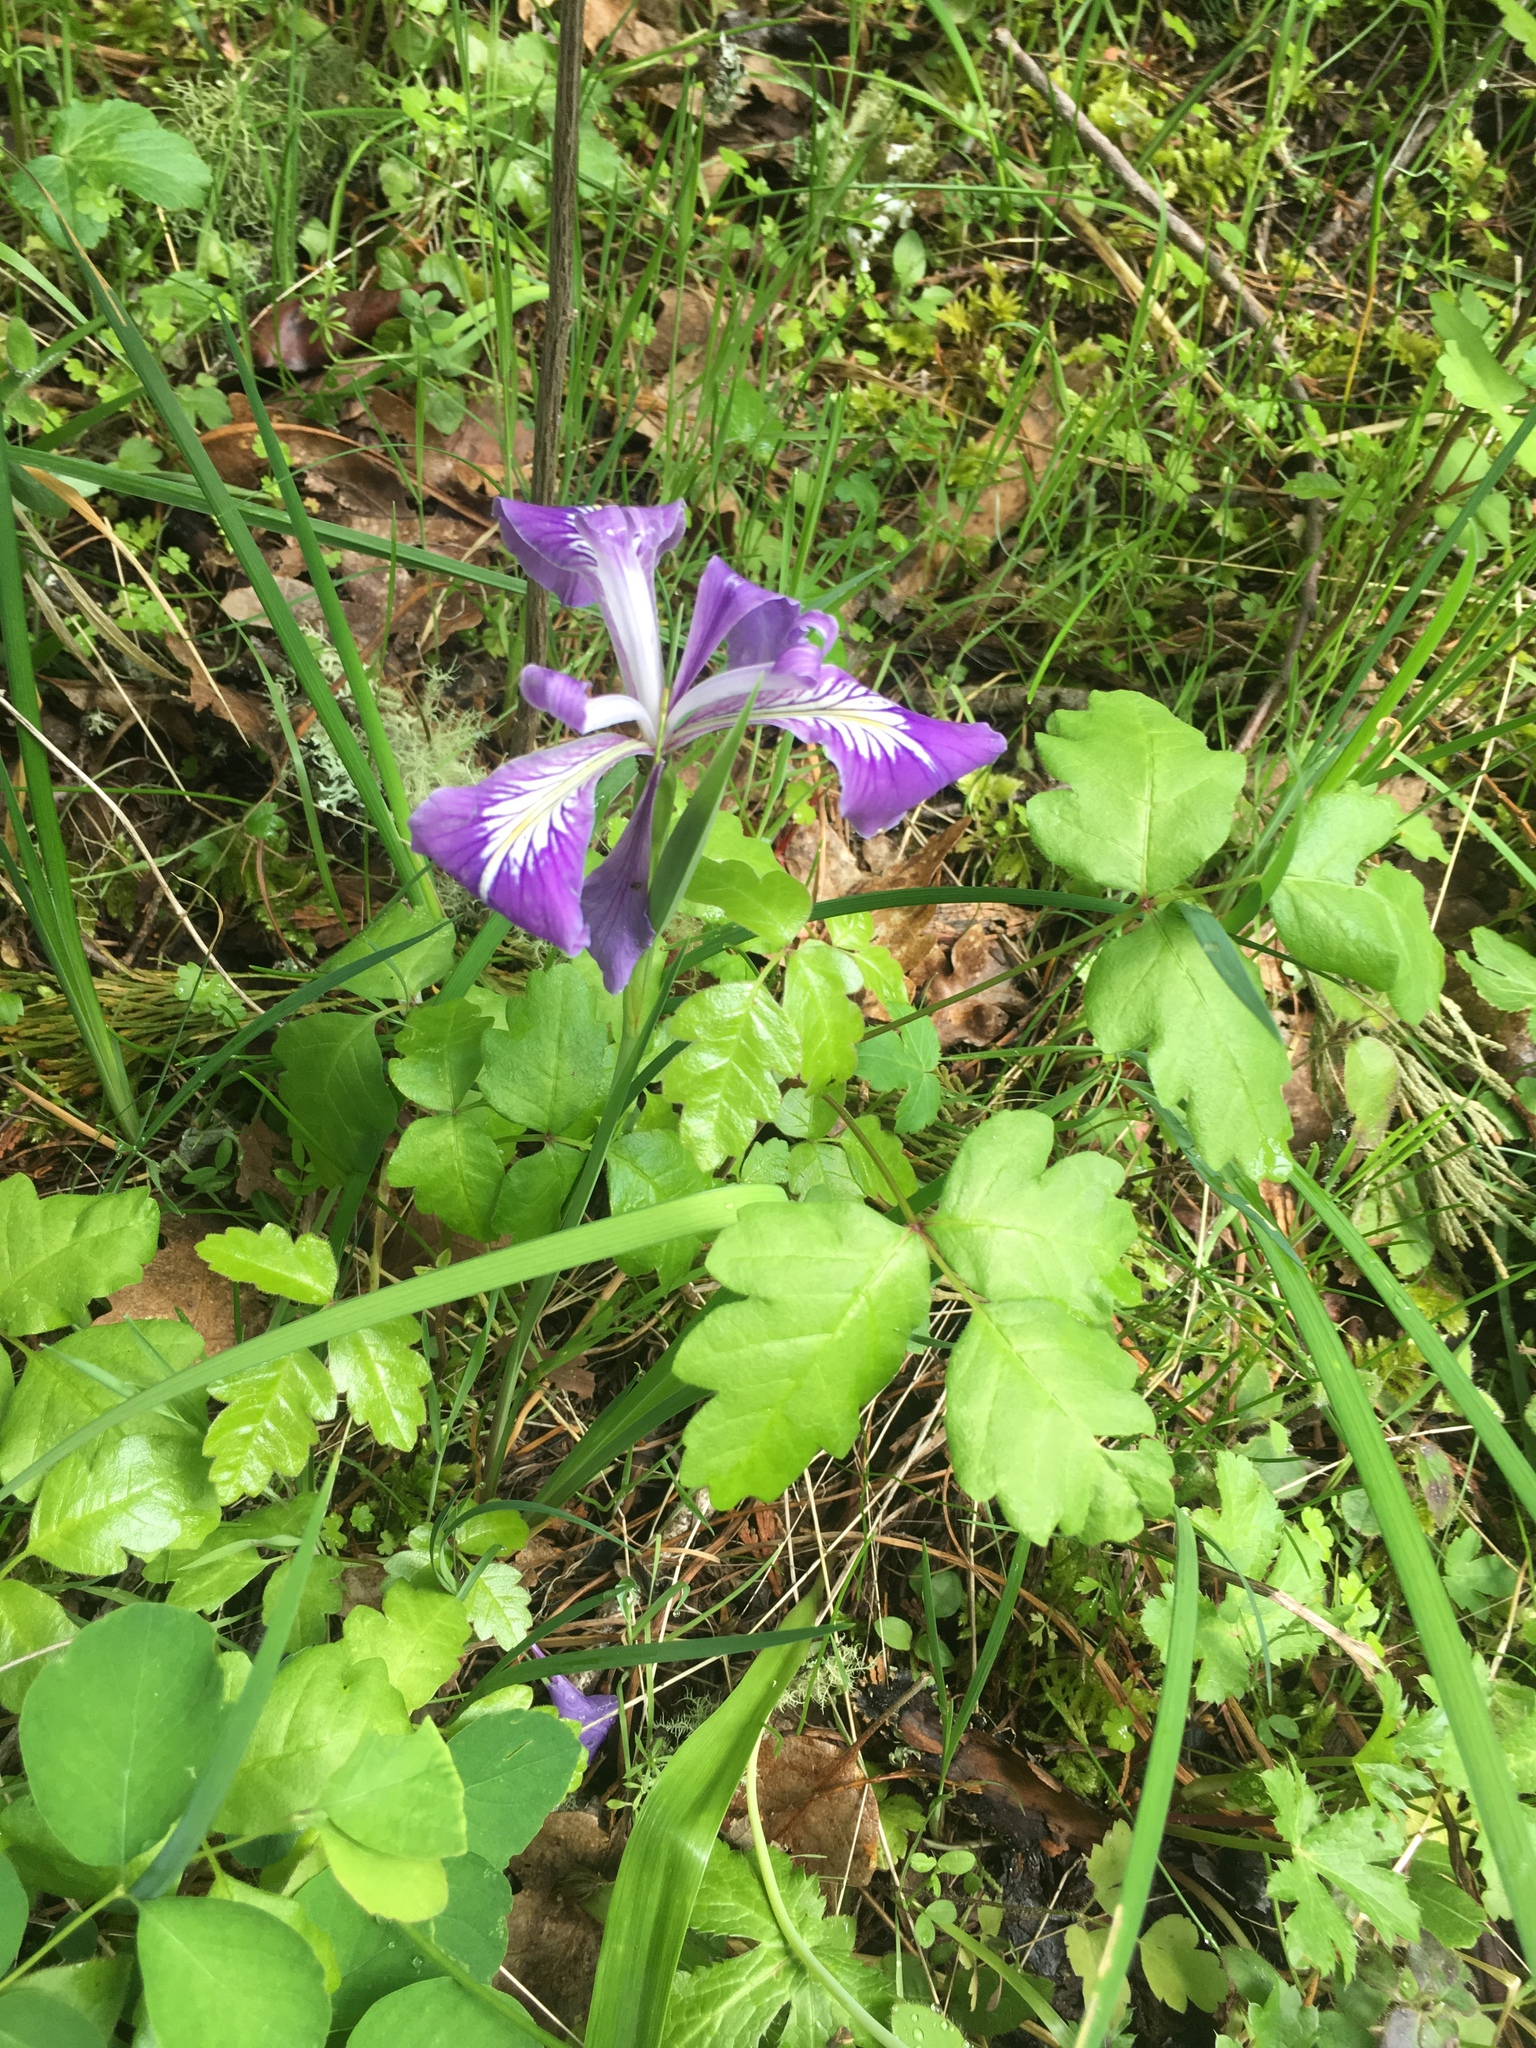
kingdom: Plantae
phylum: Tracheophyta
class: Liliopsida
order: Asparagales
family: Iridaceae
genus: Iris
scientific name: Iris tenax
